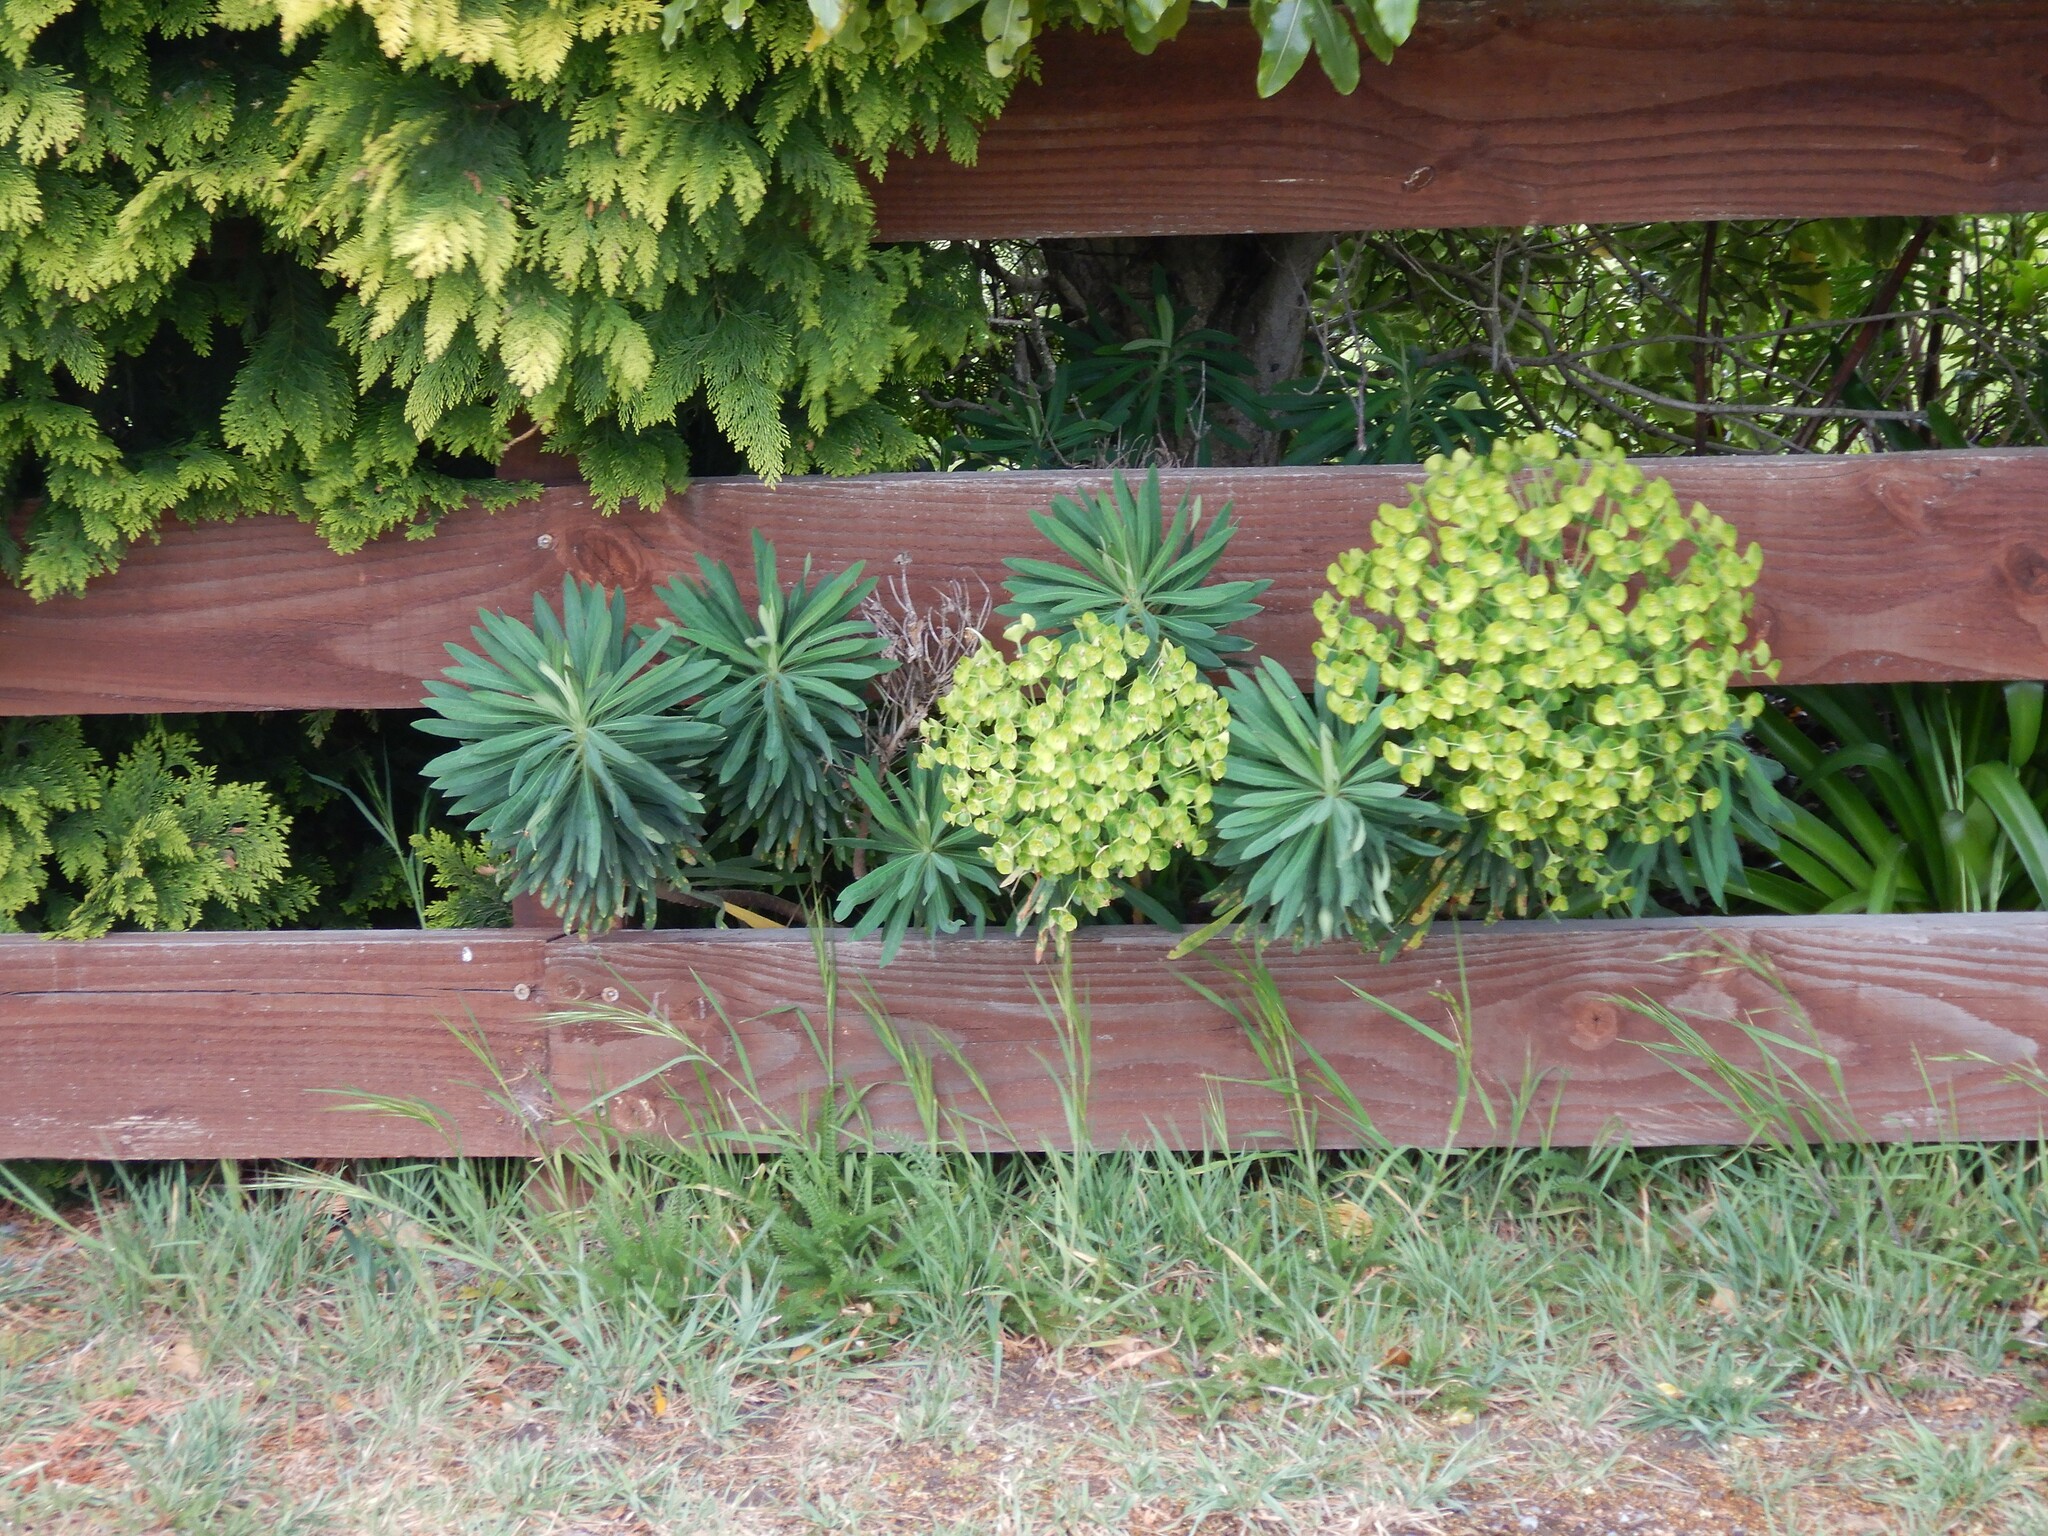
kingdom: Plantae
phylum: Tracheophyta
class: Magnoliopsida
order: Malpighiales
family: Euphorbiaceae
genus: Euphorbia
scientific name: Euphorbia characias
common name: Mediterranean spurge
